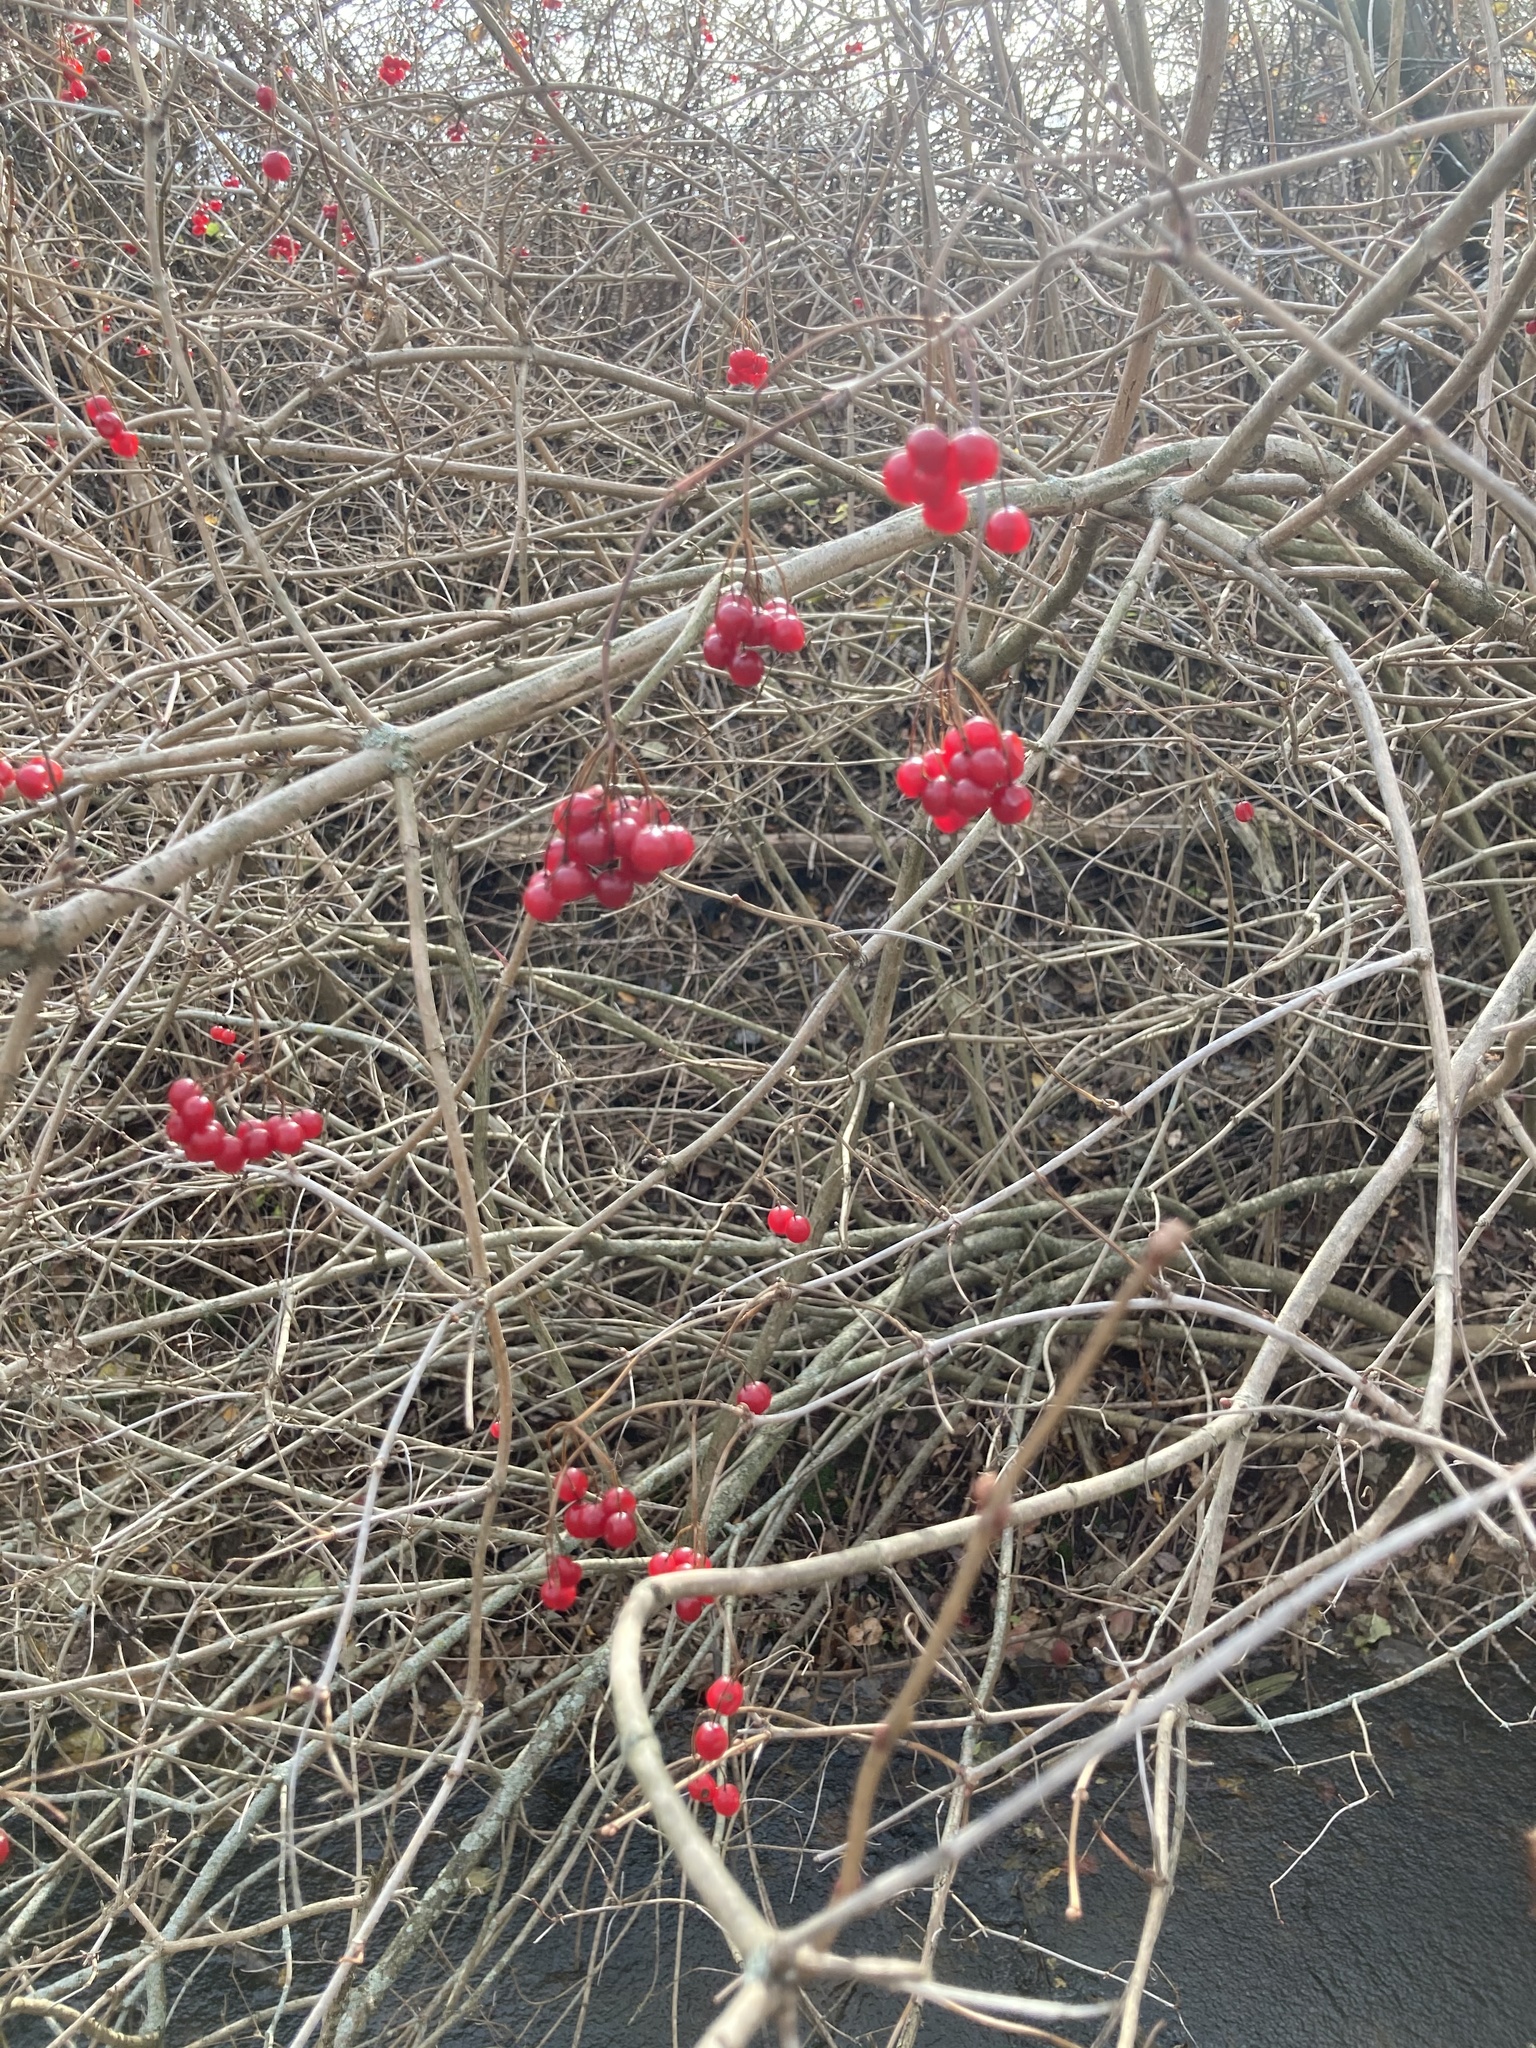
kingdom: Plantae
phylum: Tracheophyta
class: Magnoliopsida
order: Dipsacales
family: Viburnaceae
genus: Viburnum
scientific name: Viburnum opulus
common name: Guelder-rose
